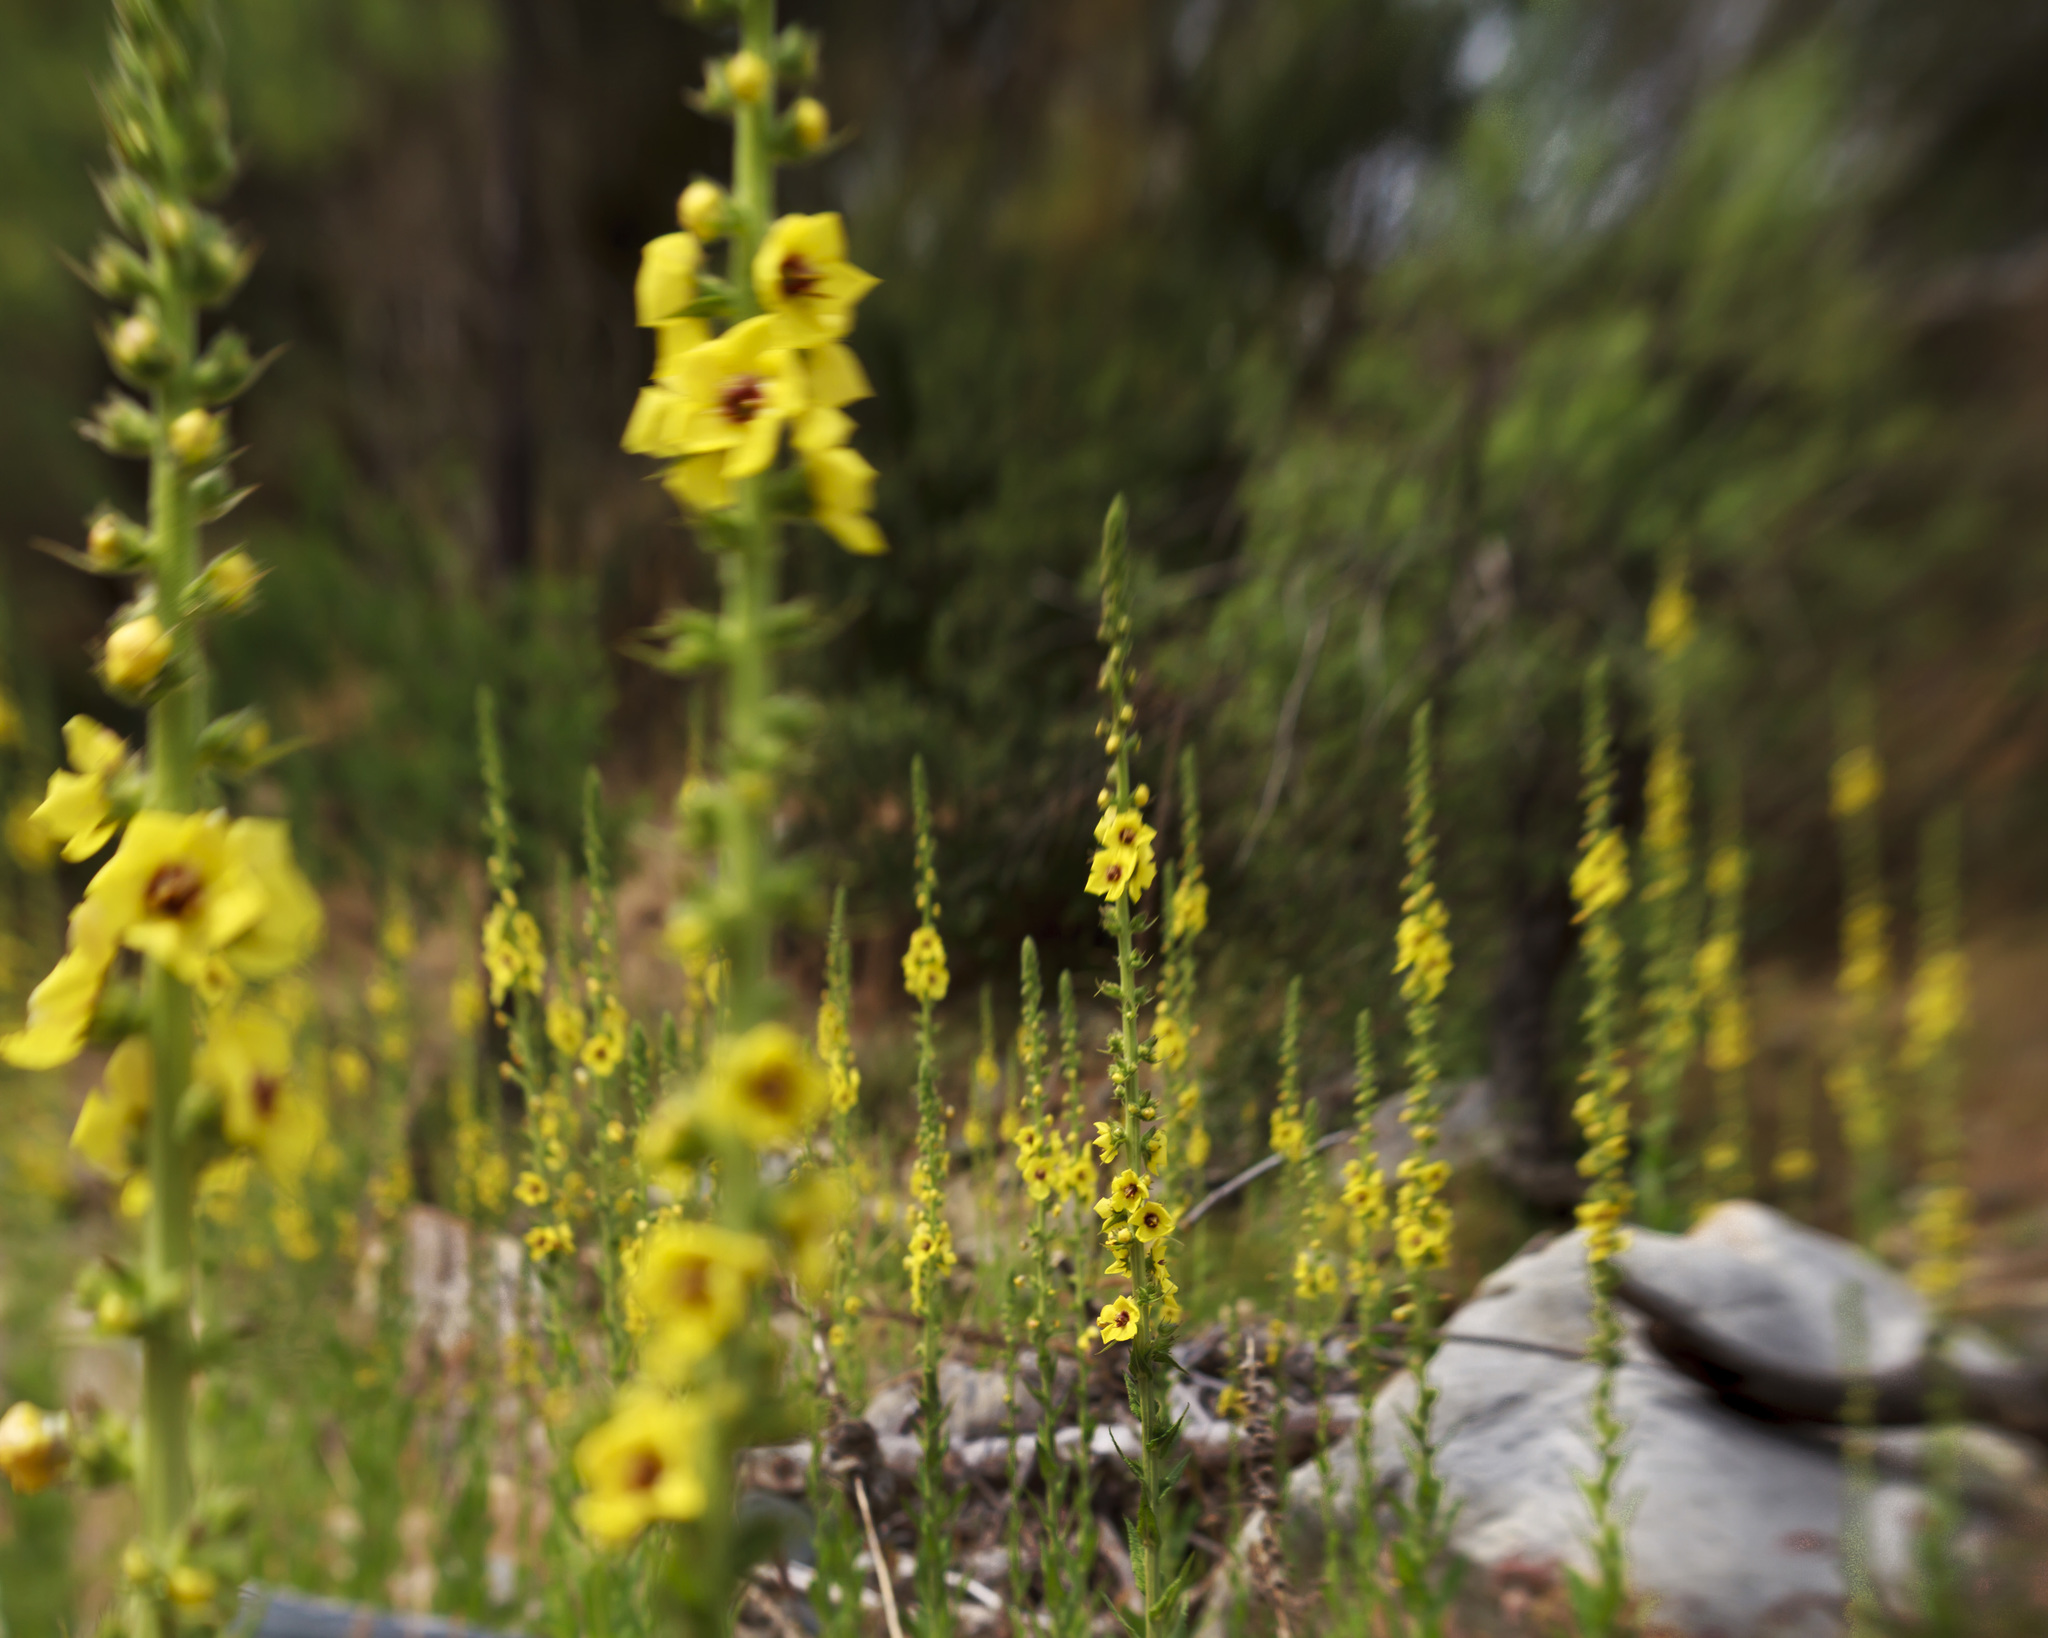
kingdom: Plantae
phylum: Tracheophyta
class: Magnoliopsida
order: Lamiales
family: Scrophulariaceae
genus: Verbascum
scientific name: Verbascum virgatum
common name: Twiggy mullein
